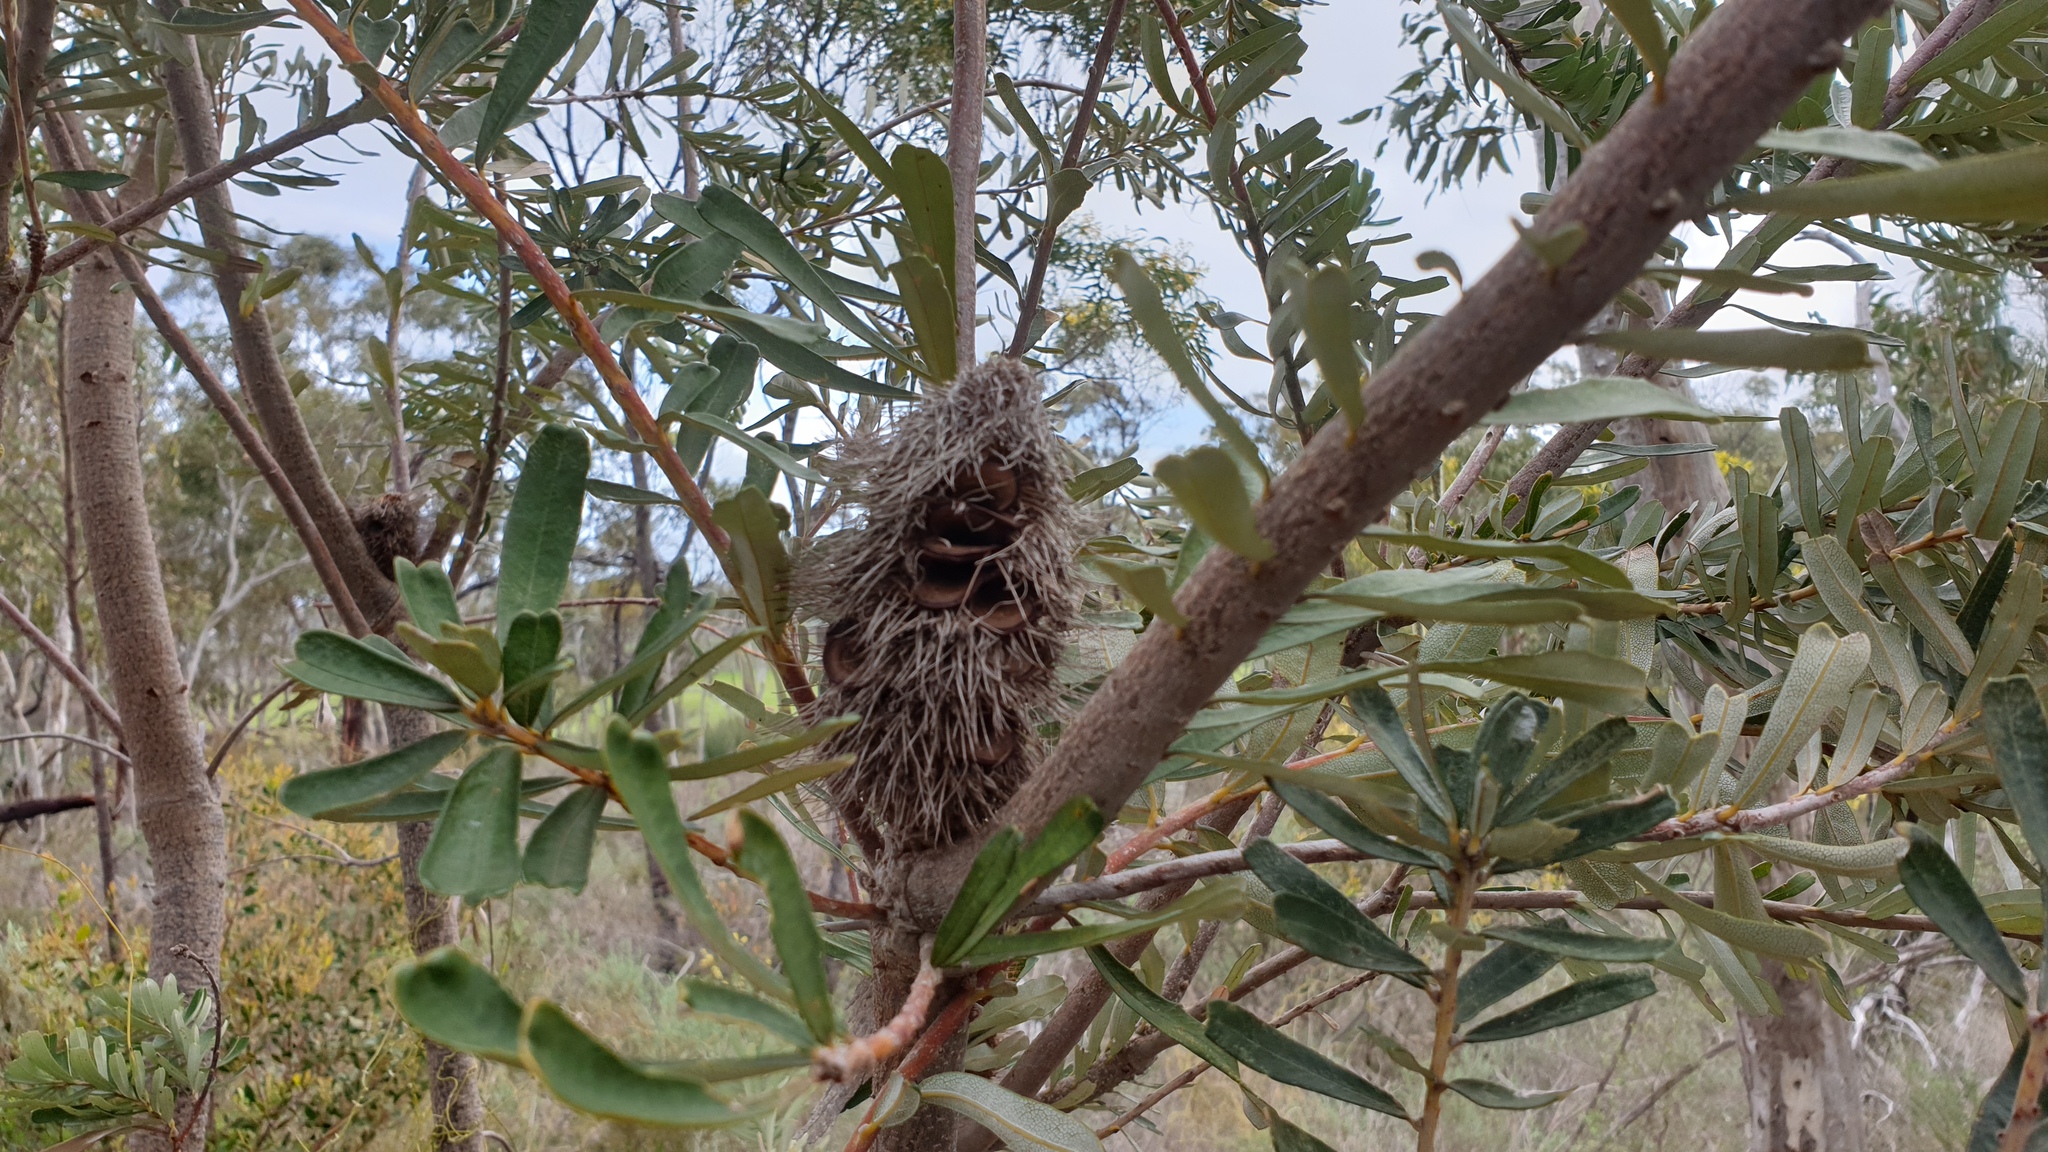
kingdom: Plantae
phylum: Tracheophyta
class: Magnoliopsida
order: Proteales
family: Proteaceae
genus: Banksia
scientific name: Banksia marginata
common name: Silver banksia
